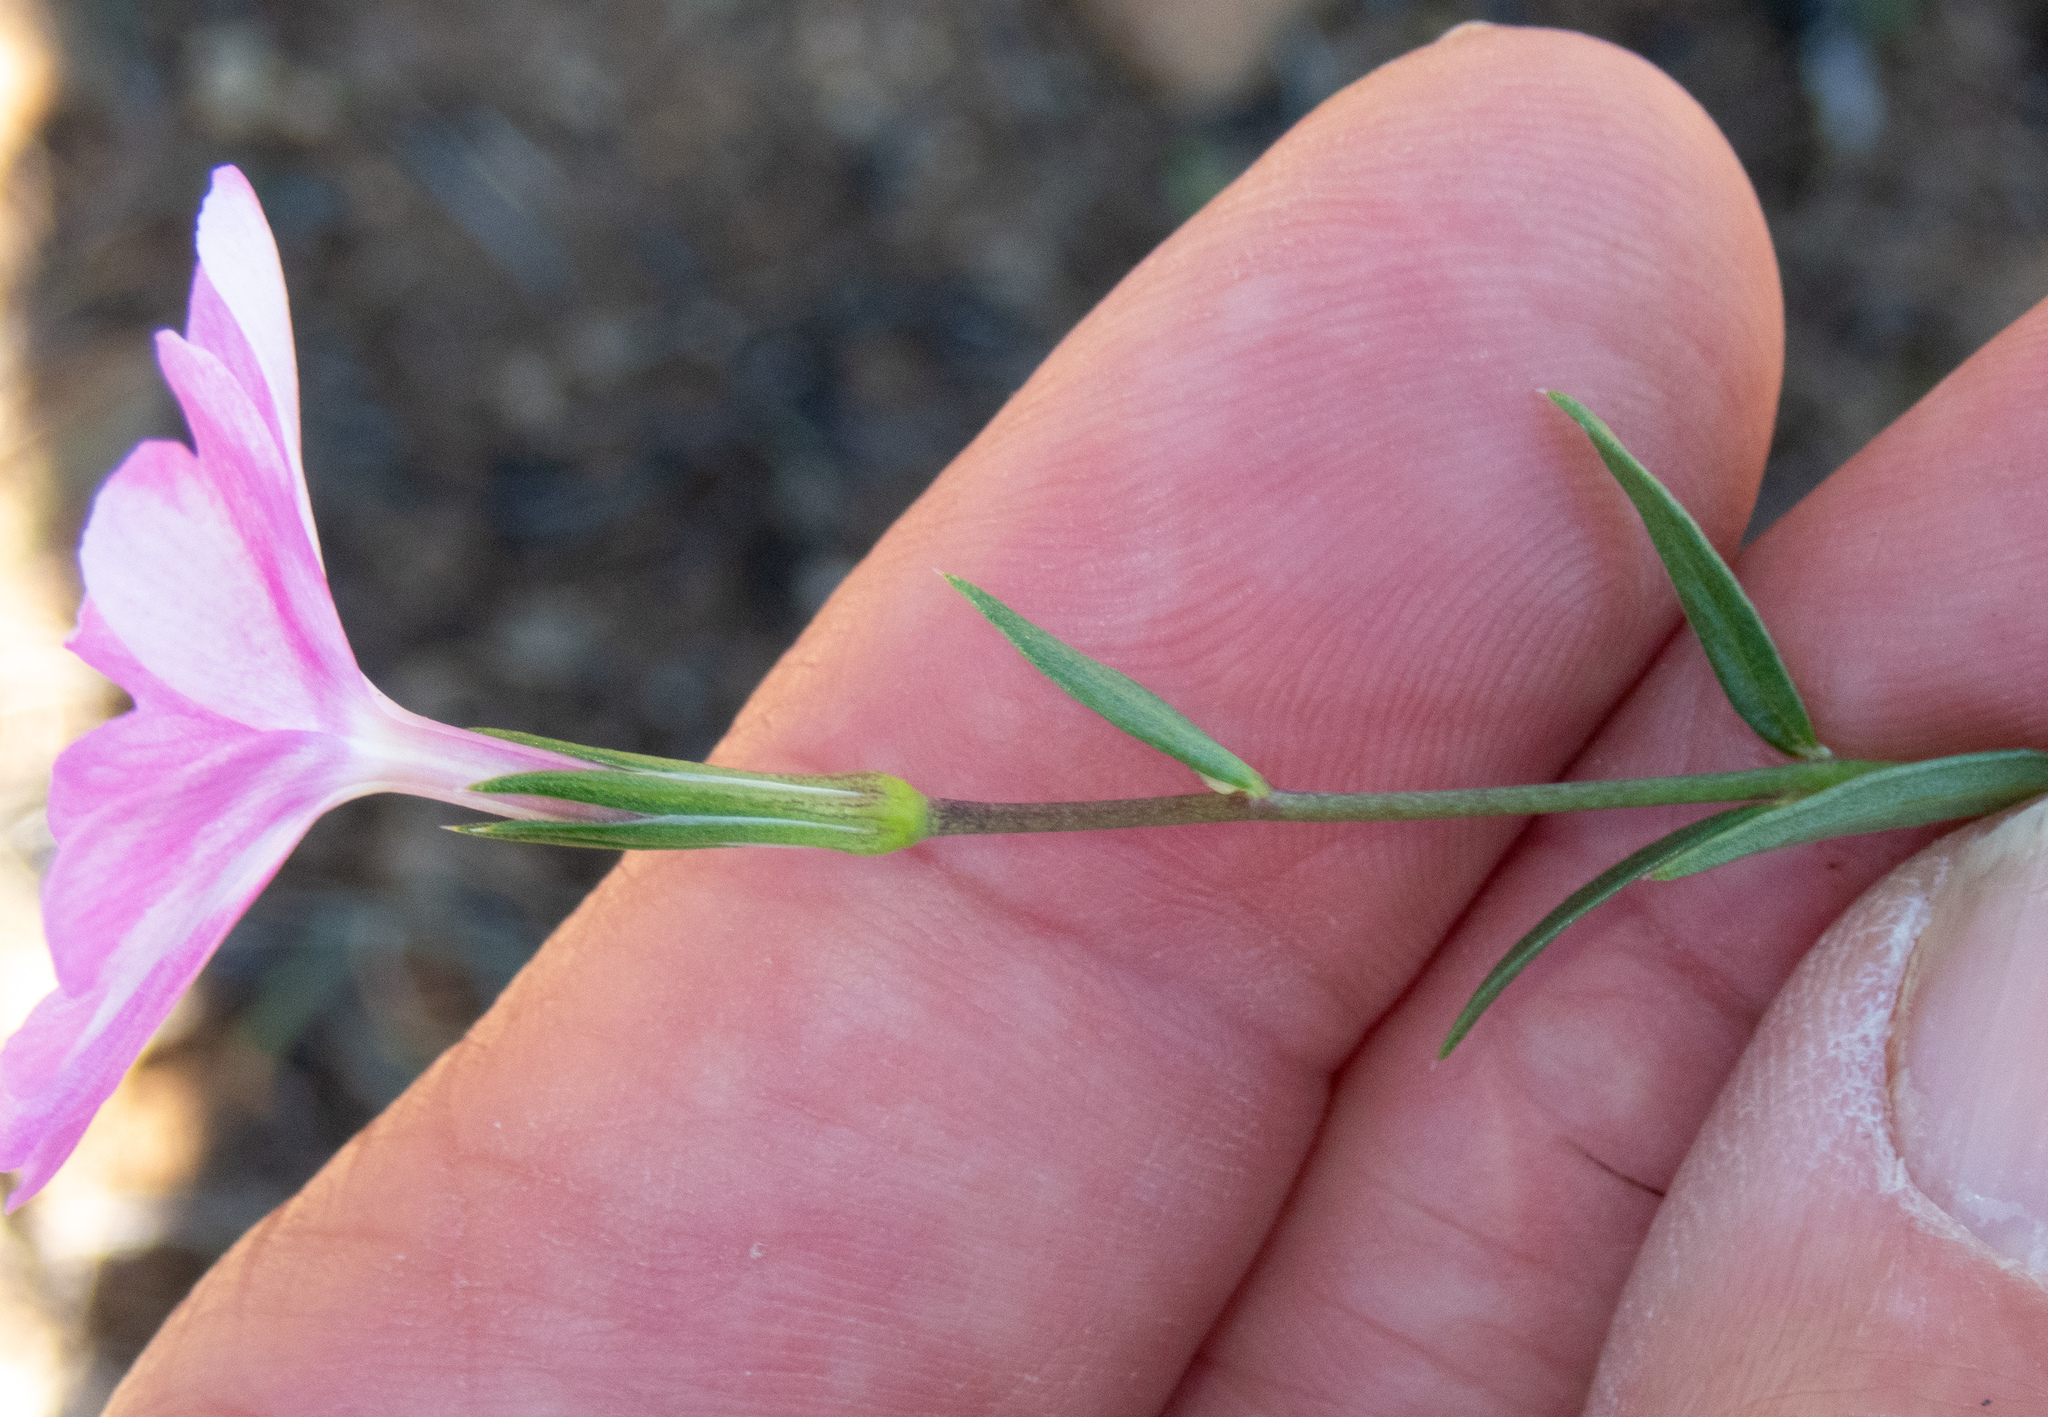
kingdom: Plantae
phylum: Tracheophyta
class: Magnoliopsida
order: Ericales
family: Polemoniaceae
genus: Phlox
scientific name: Phlox speciosa
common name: Bush phlox
